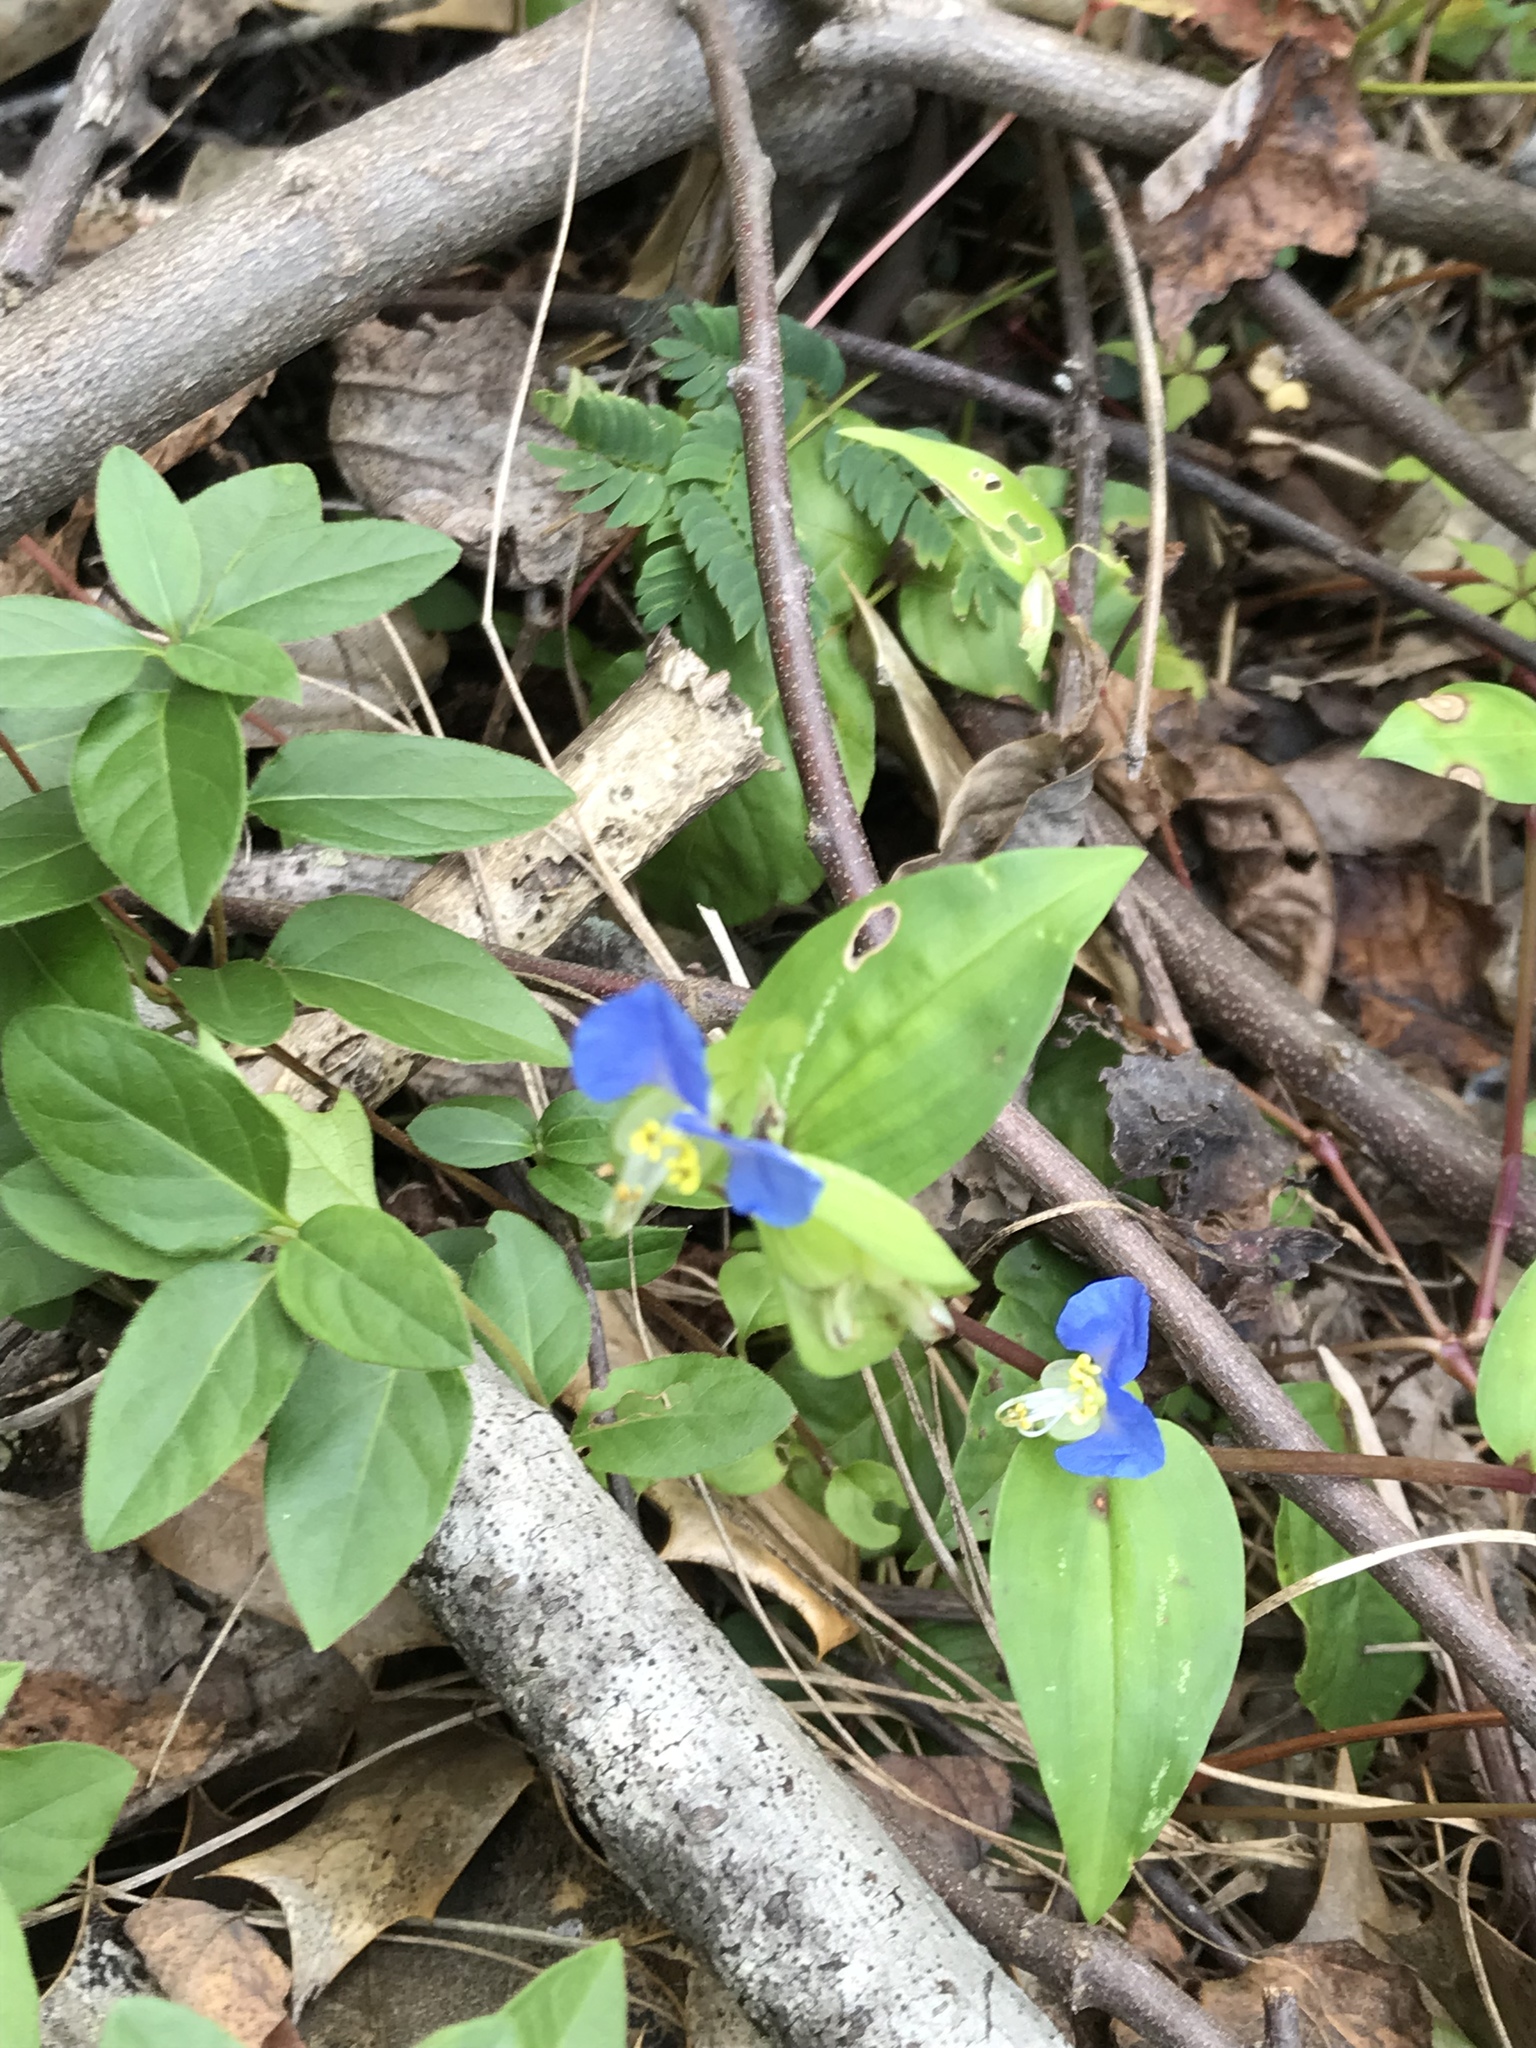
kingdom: Plantae
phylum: Tracheophyta
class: Liliopsida
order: Commelinales
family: Commelinaceae
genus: Commelina
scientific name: Commelina communis
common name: Asiatic dayflower
